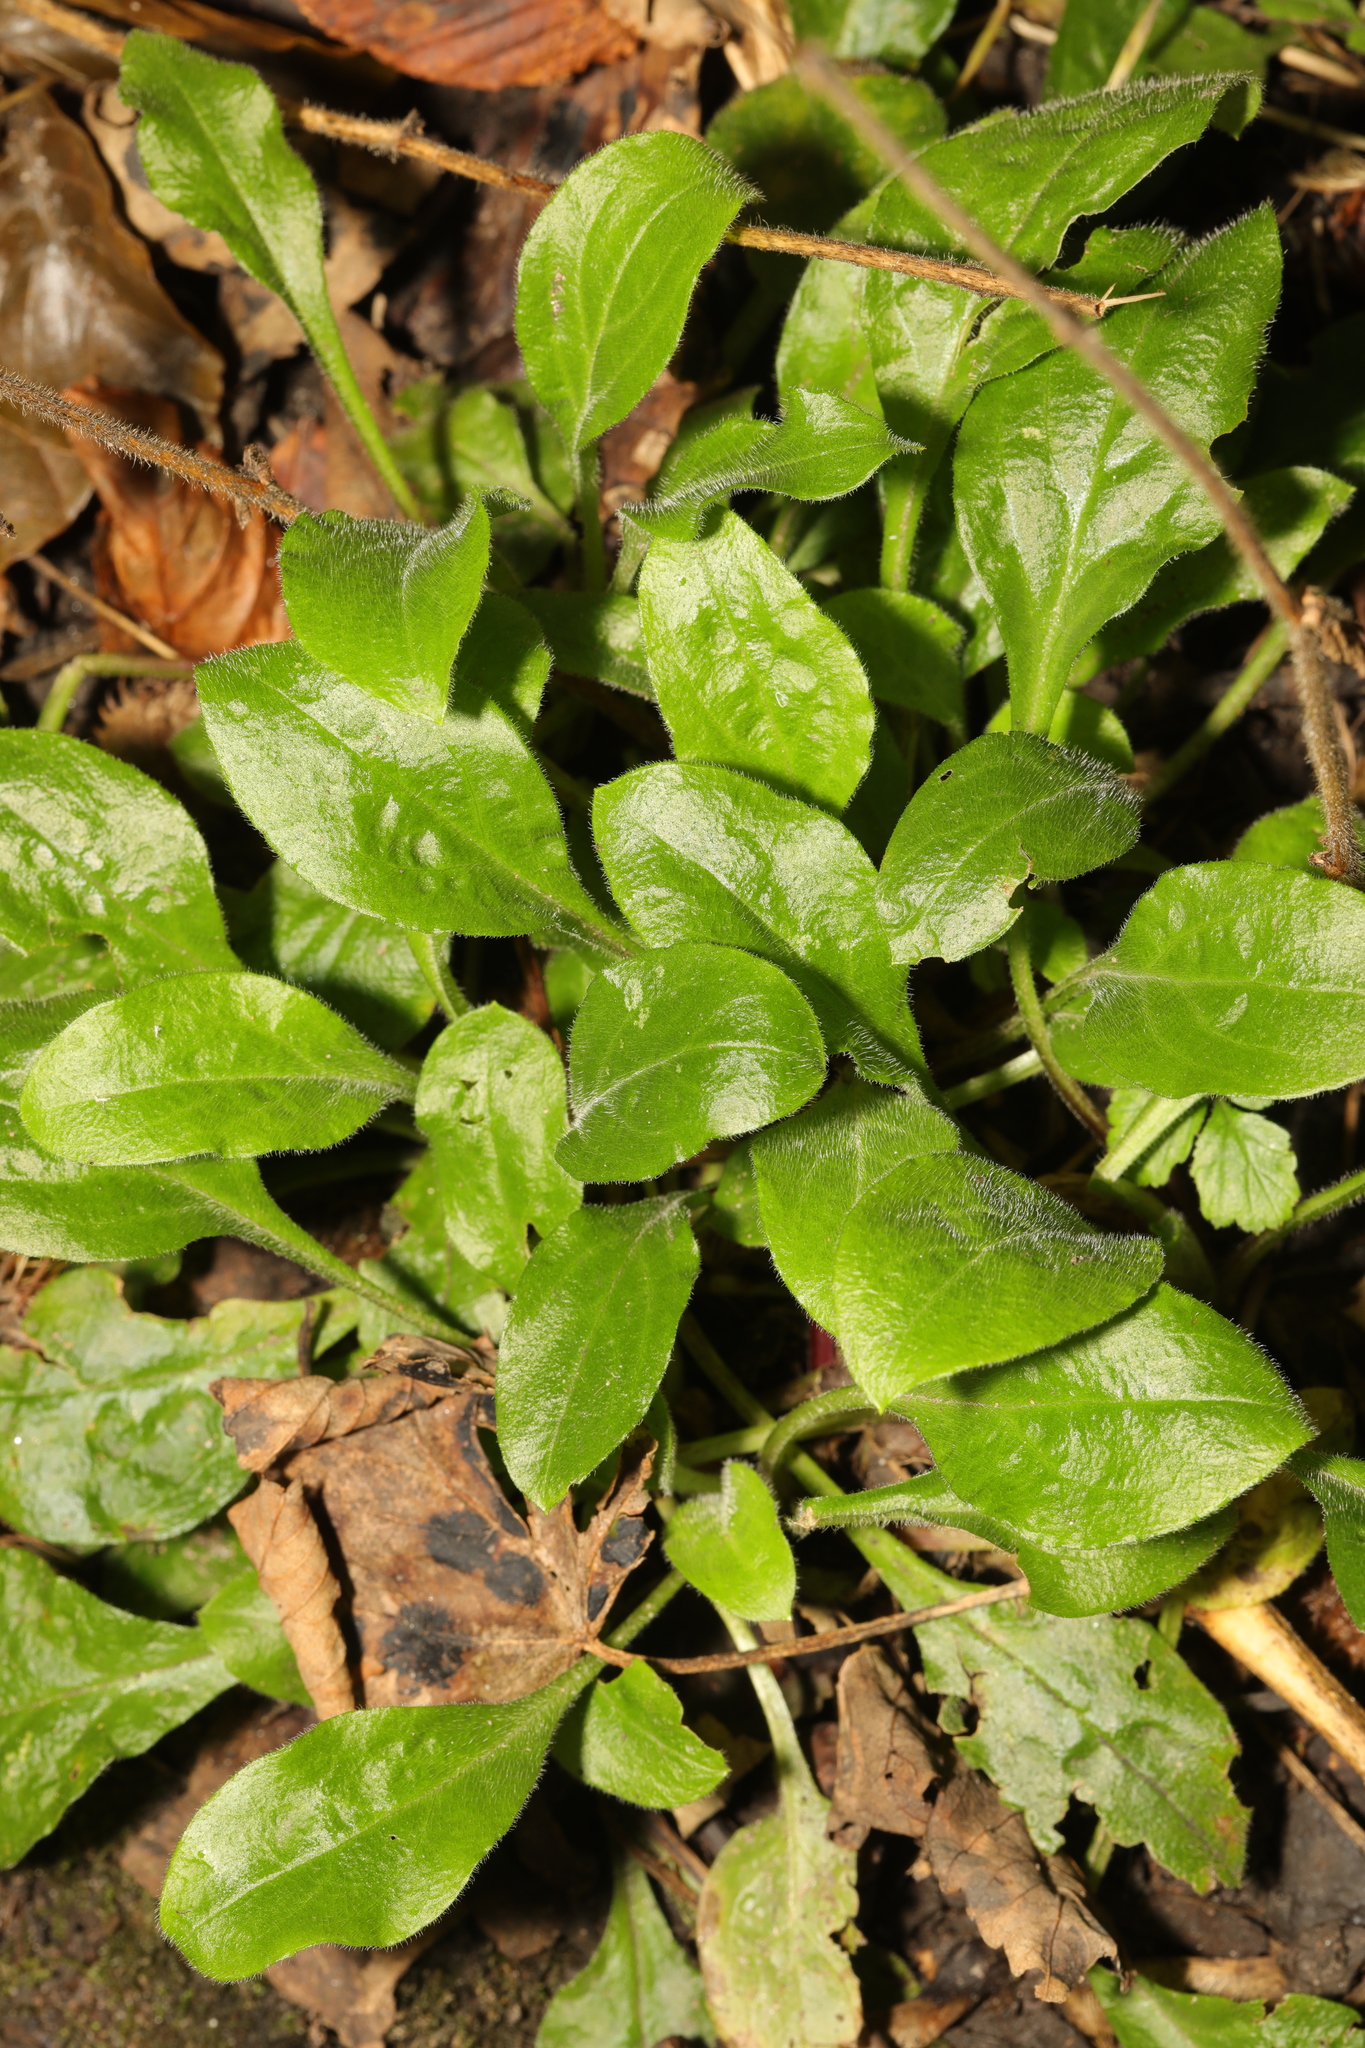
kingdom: Plantae
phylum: Tracheophyta
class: Magnoliopsida
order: Asterales
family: Asteraceae
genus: Bellis
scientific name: Bellis perennis
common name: Lawndaisy
